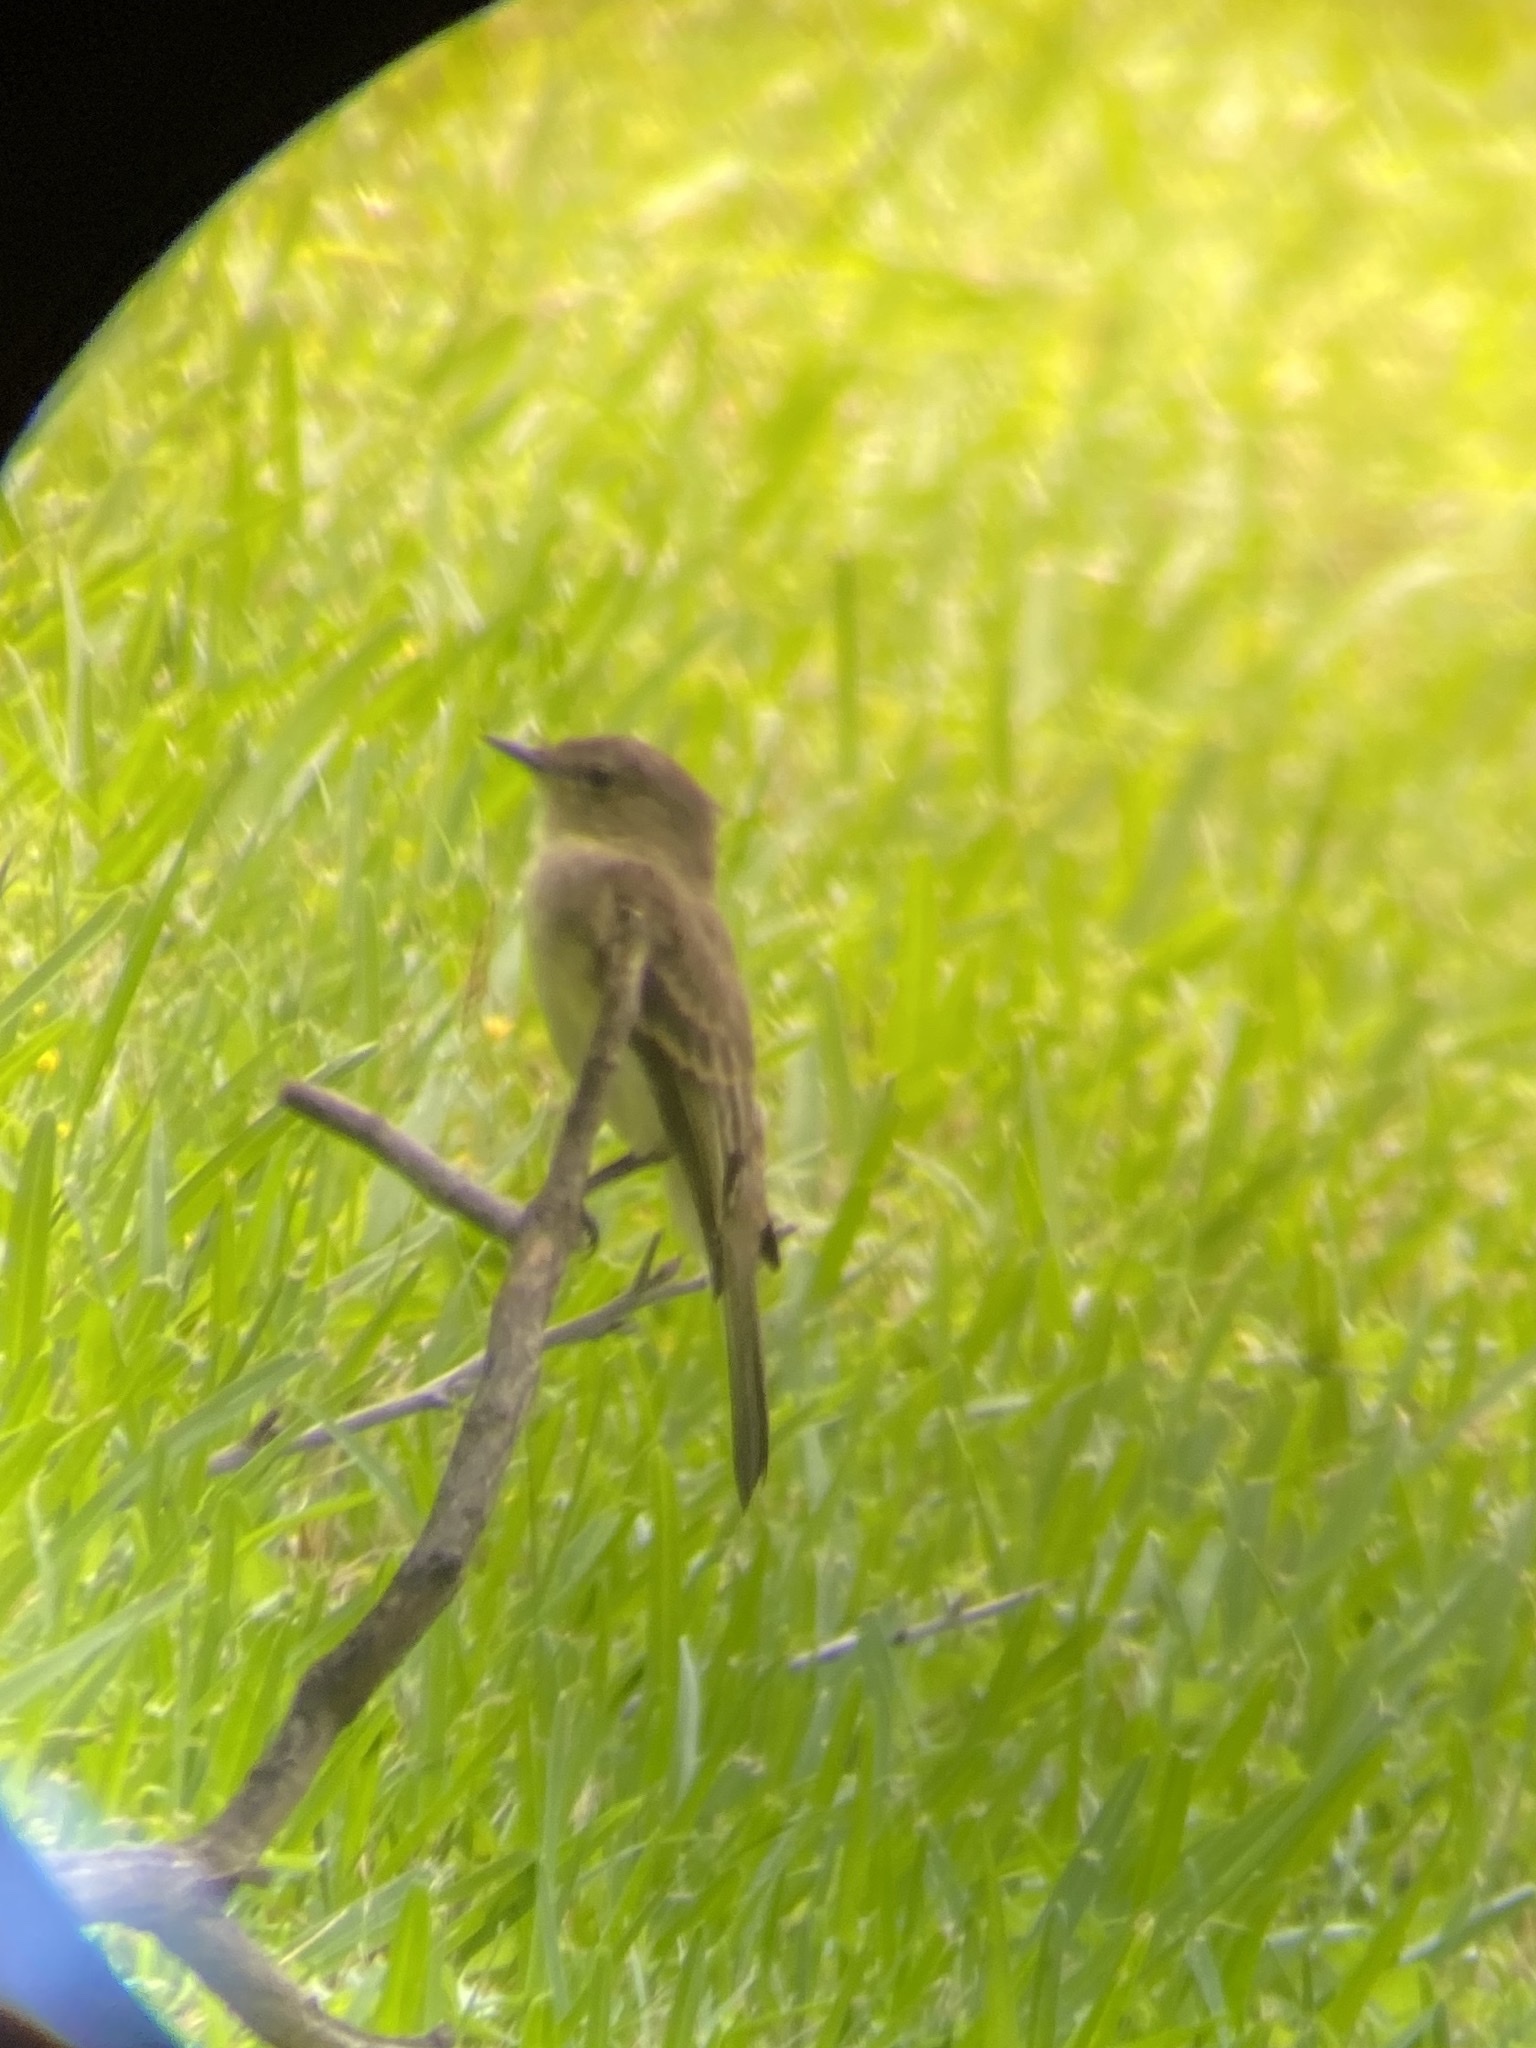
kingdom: Animalia
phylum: Chordata
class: Aves
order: Passeriformes
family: Tyrannidae
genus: Sayornis
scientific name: Sayornis phoebe
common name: Eastern phoebe
